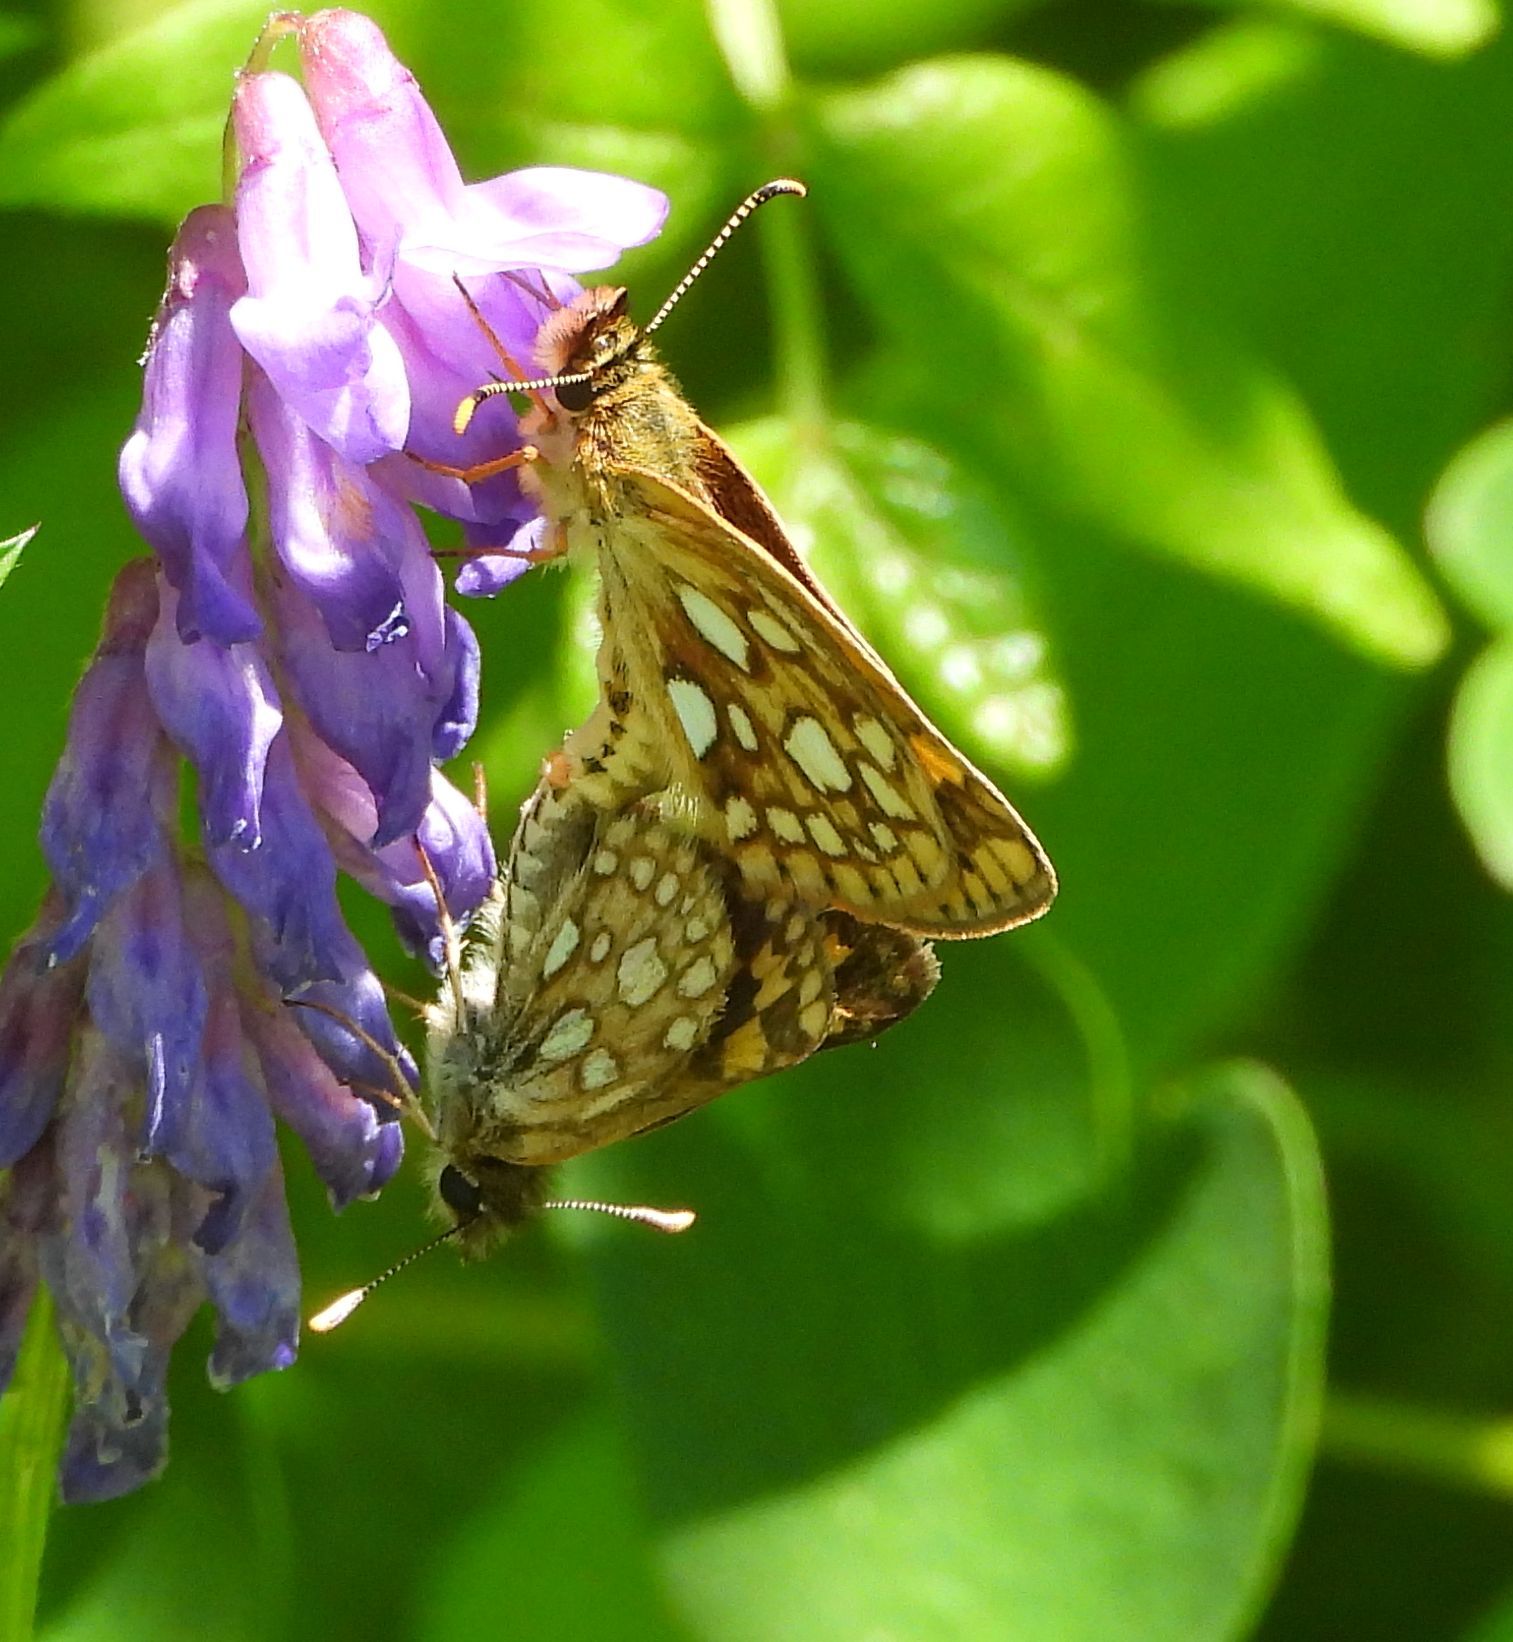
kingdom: Animalia
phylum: Arthropoda
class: Insecta
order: Lepidoptera
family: Hesperiidae
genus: Carterocephalus
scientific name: Carterocephalus mandan
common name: Arctic skipperling
